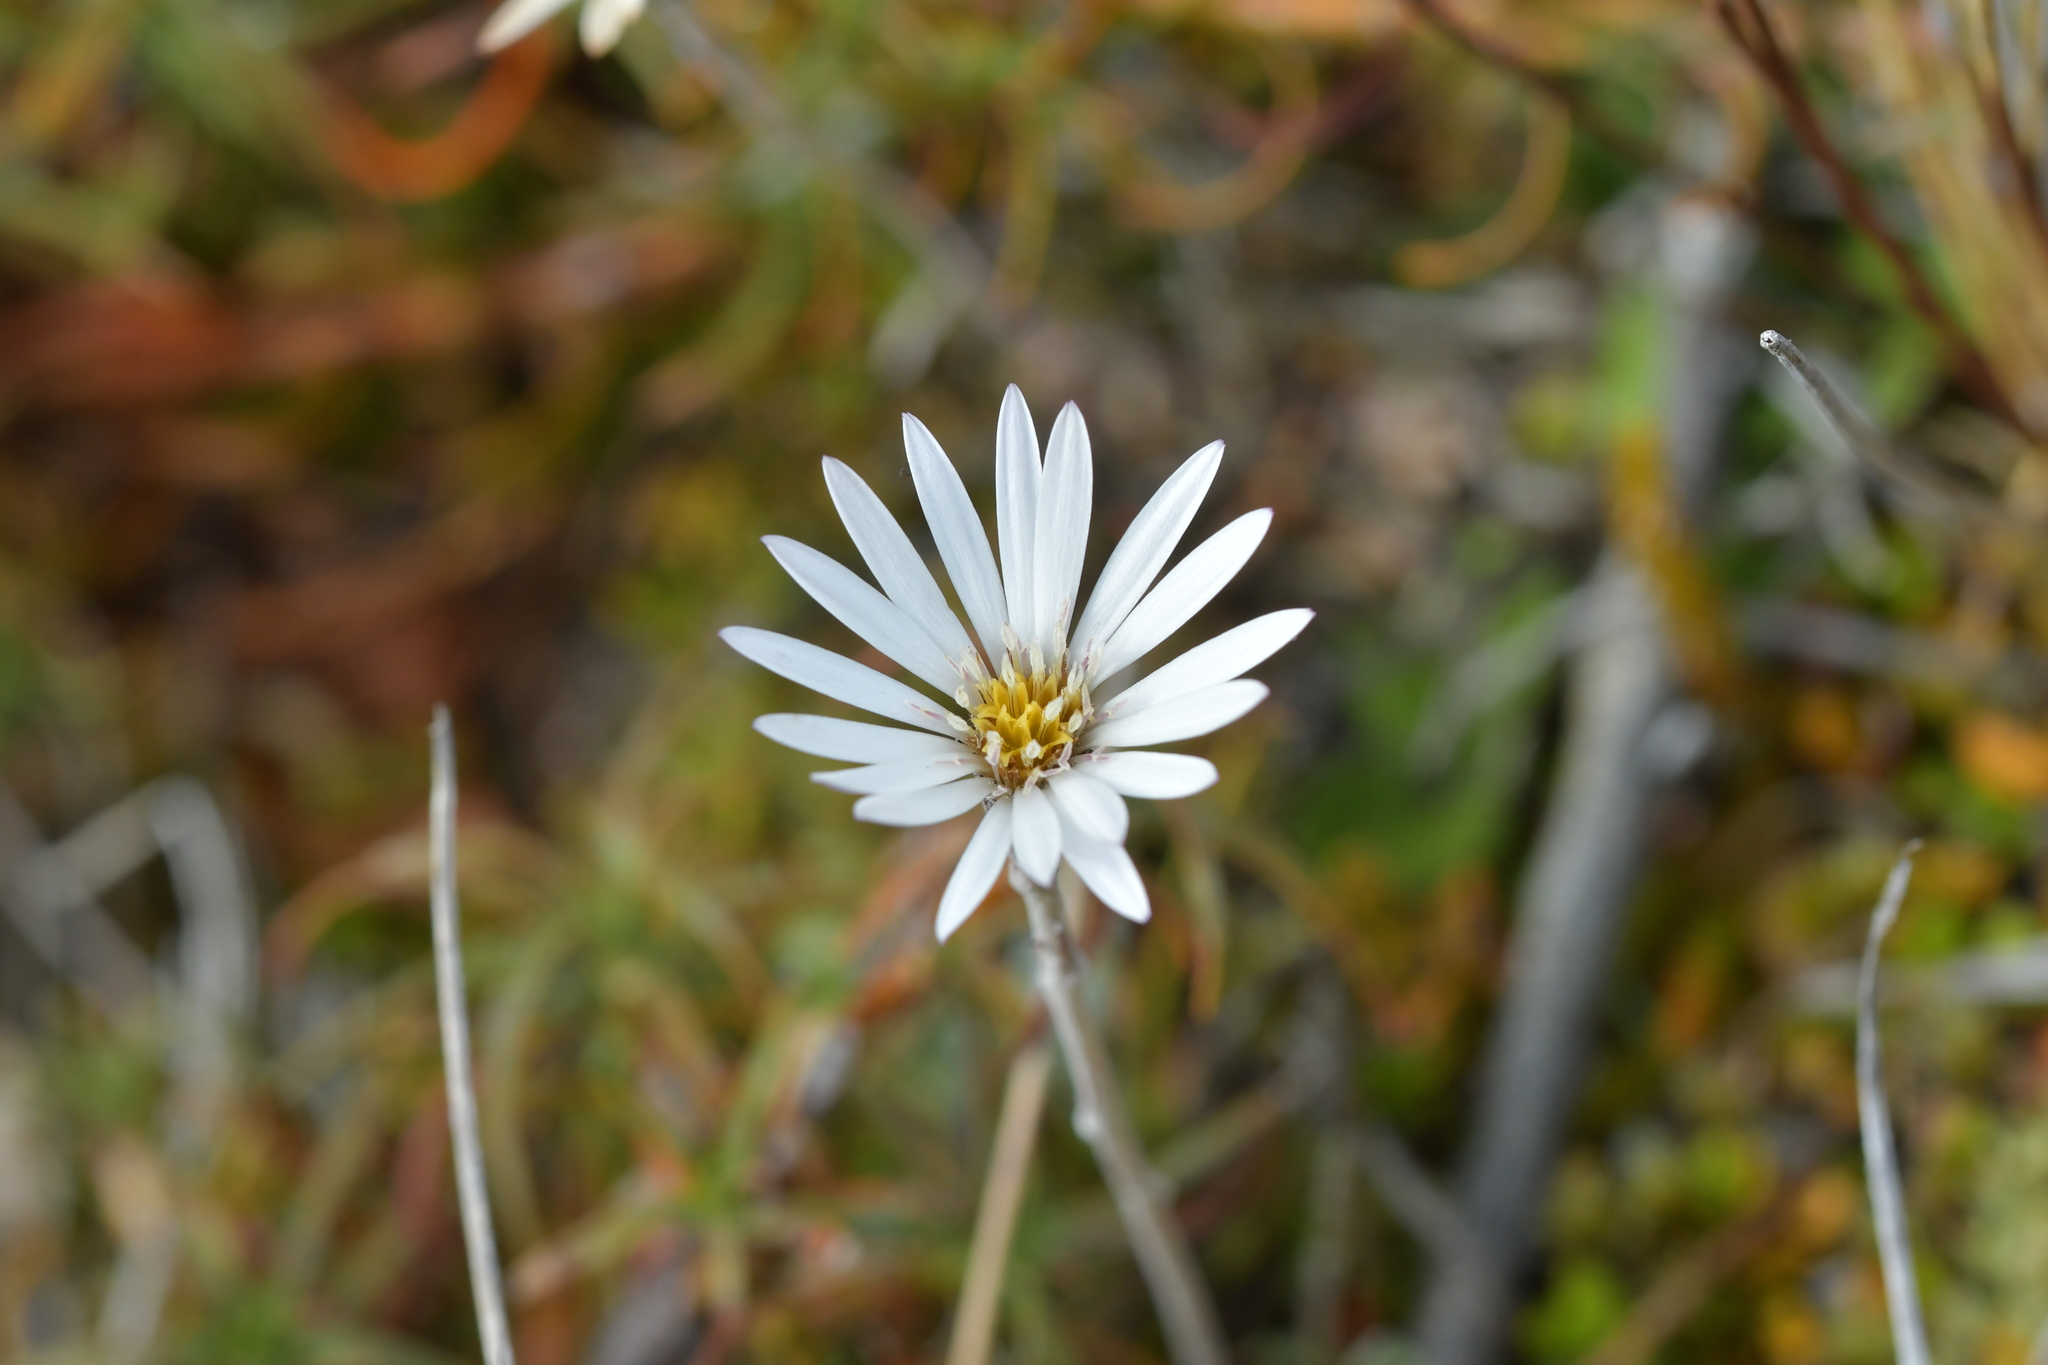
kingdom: Plantae
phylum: Tracheophyta
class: Magnoliopsida
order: Asterales
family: Asteraceae
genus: Celmisia
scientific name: Celmisia gracilenta
